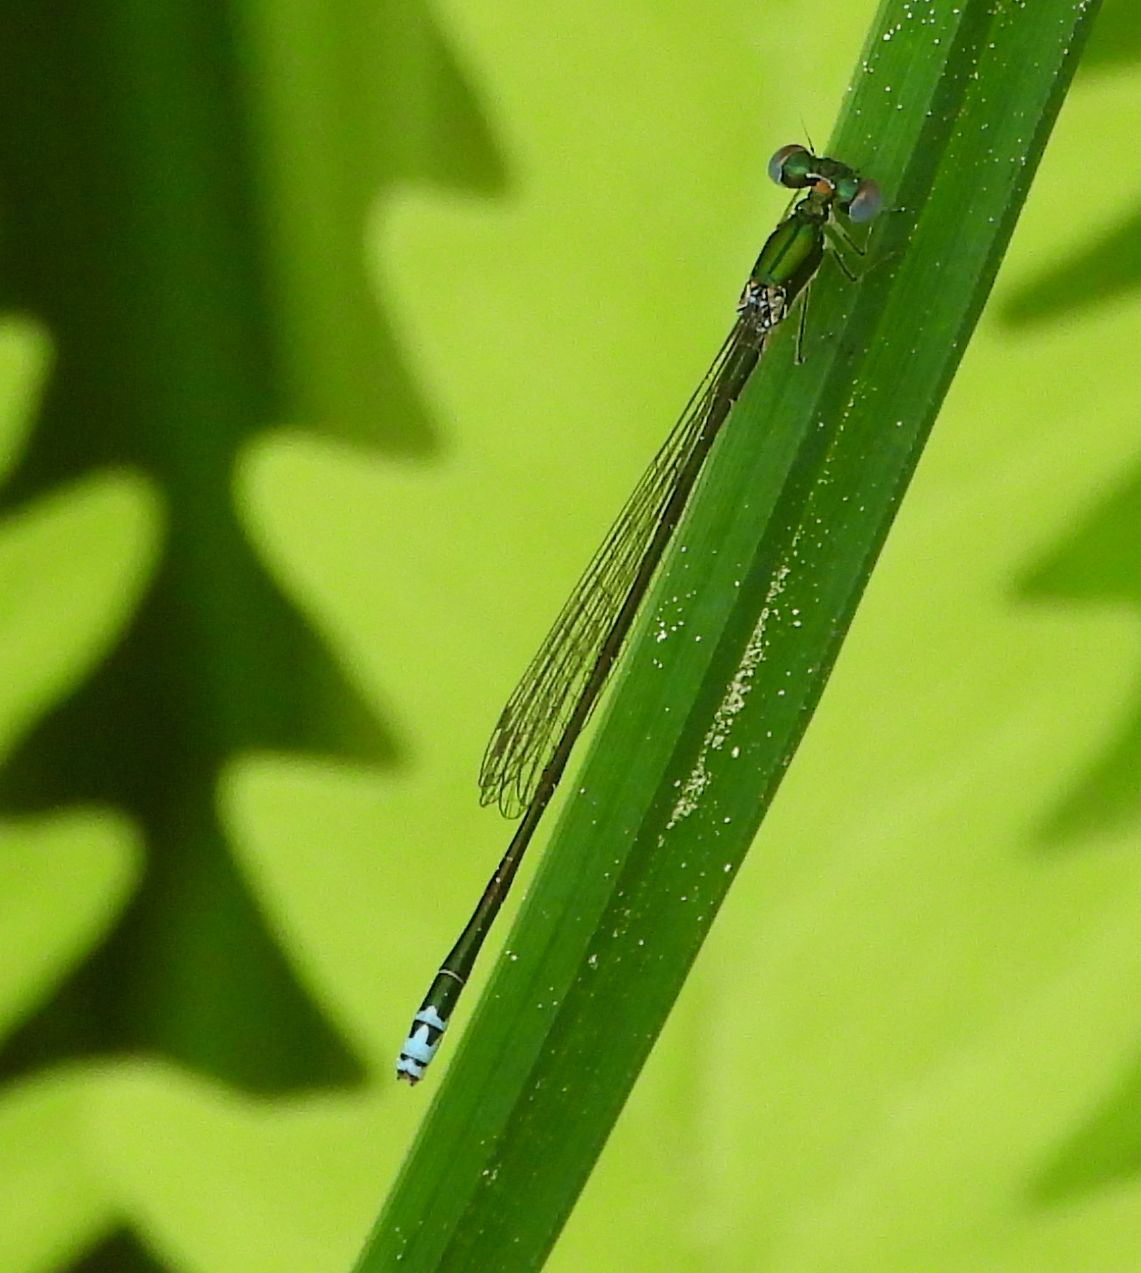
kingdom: Animalia
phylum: Arthropoda
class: Insecta
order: Odonata
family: Coenagrionidae
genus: Nehalennia
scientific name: Nehalennia irene
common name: Sedge sprite
